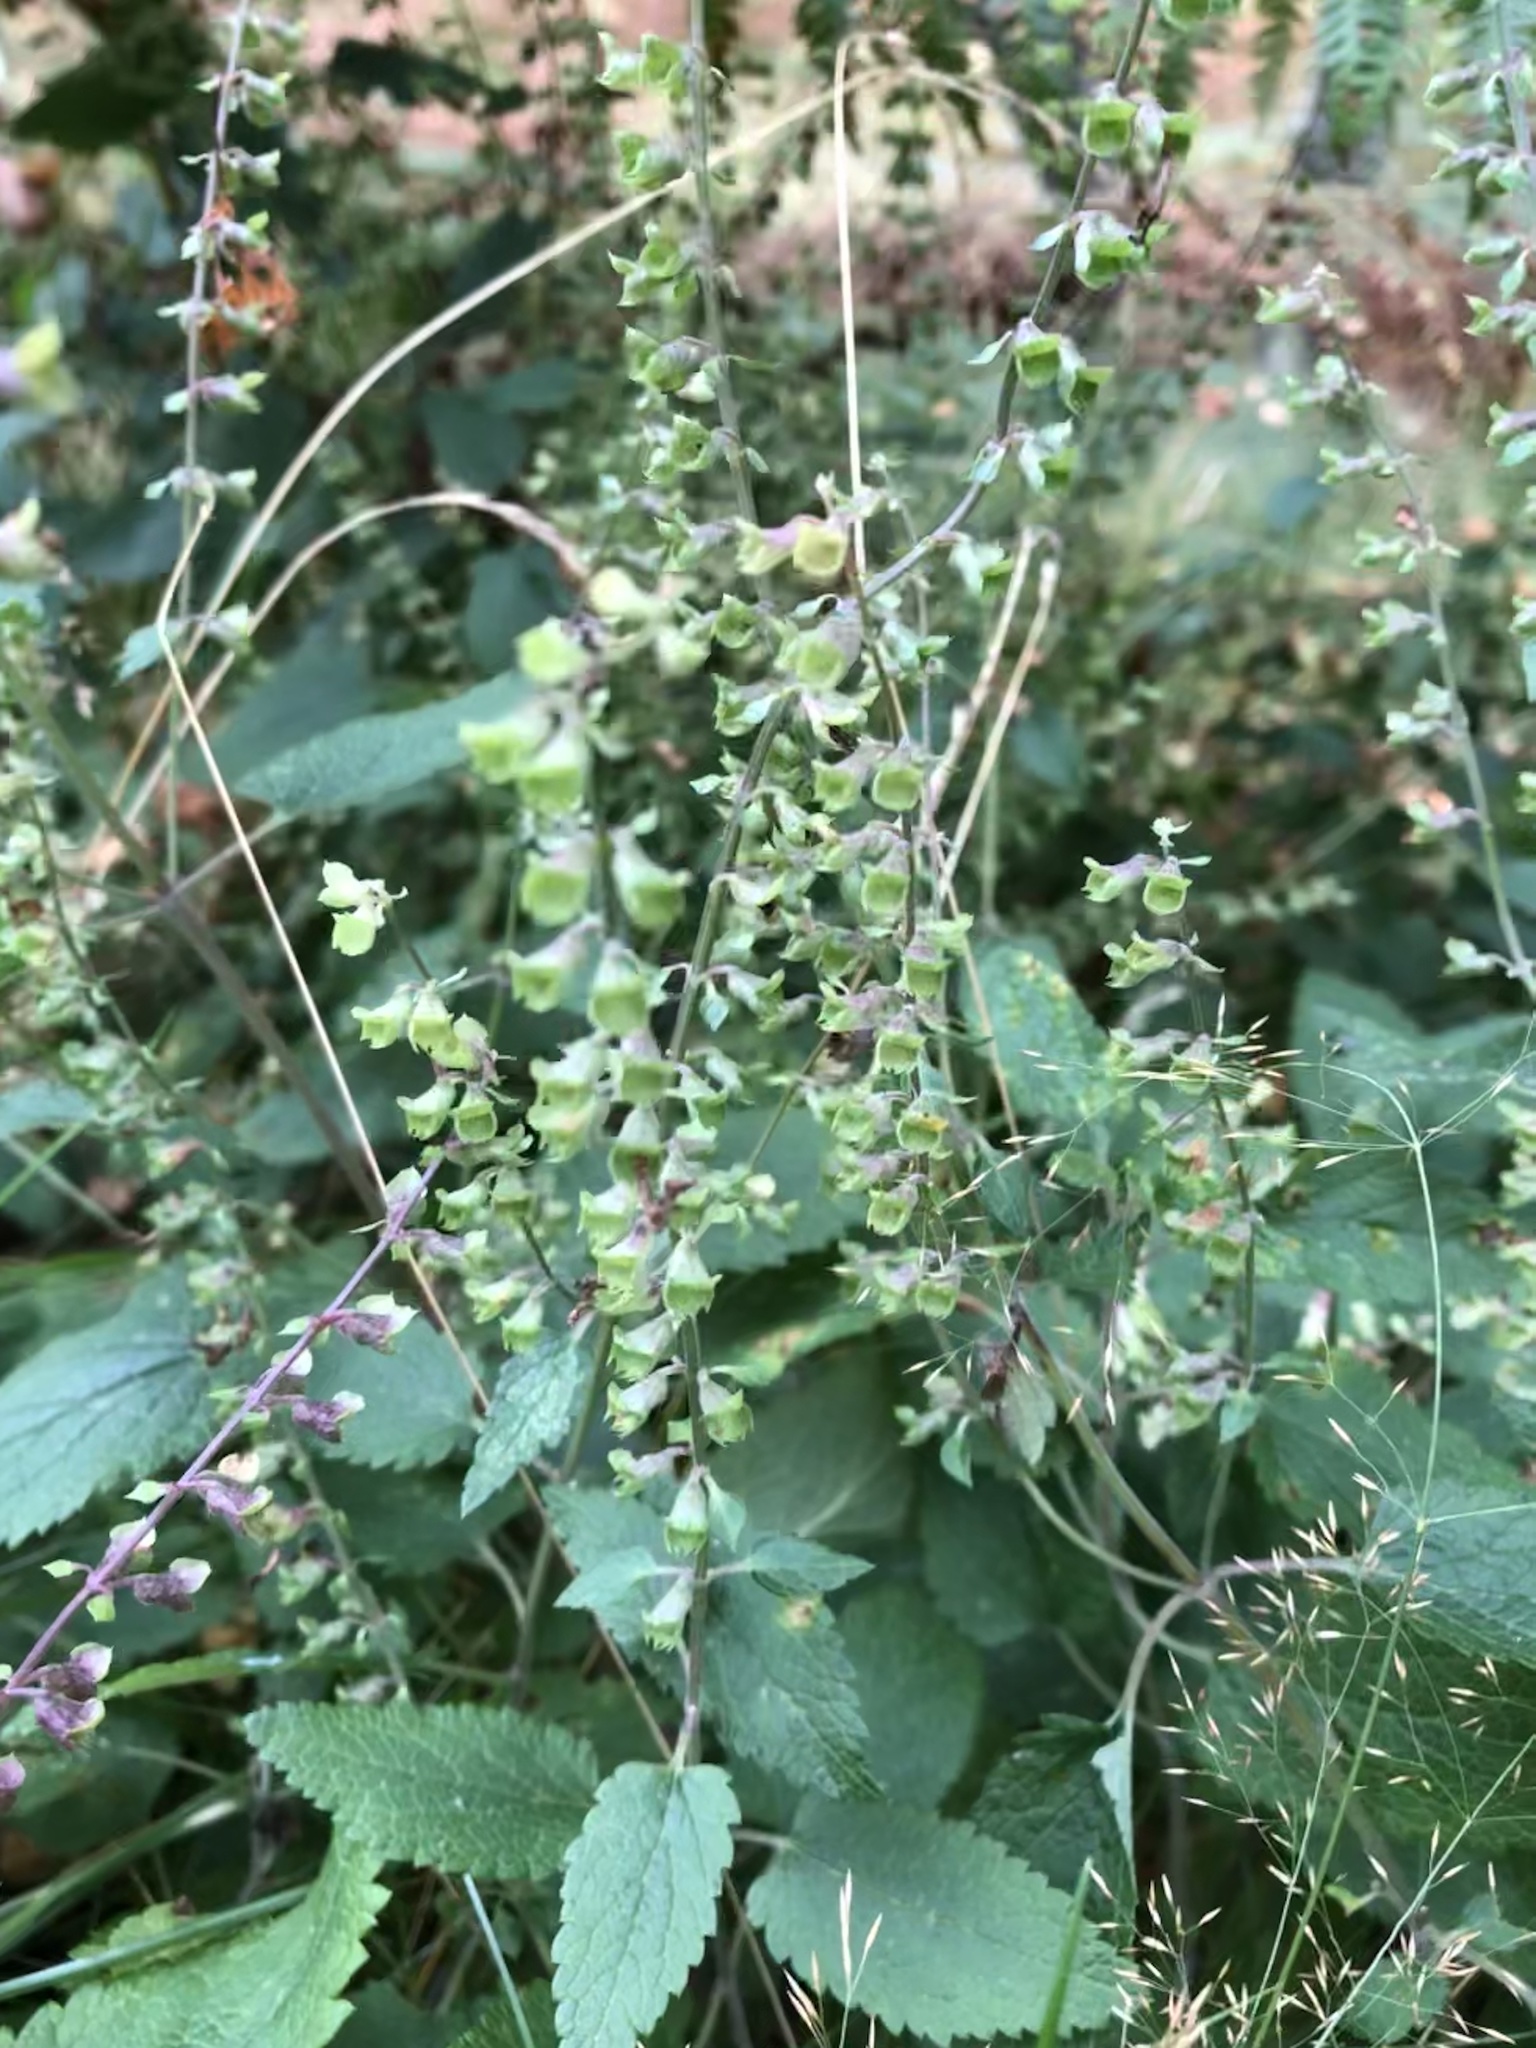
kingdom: Plantae
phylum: Tracheophyta
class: Magnoliopsida
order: Lamiales
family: Lamiaceae
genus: Teucrium
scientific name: Teucrium scorodonia
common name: Woodland germander
